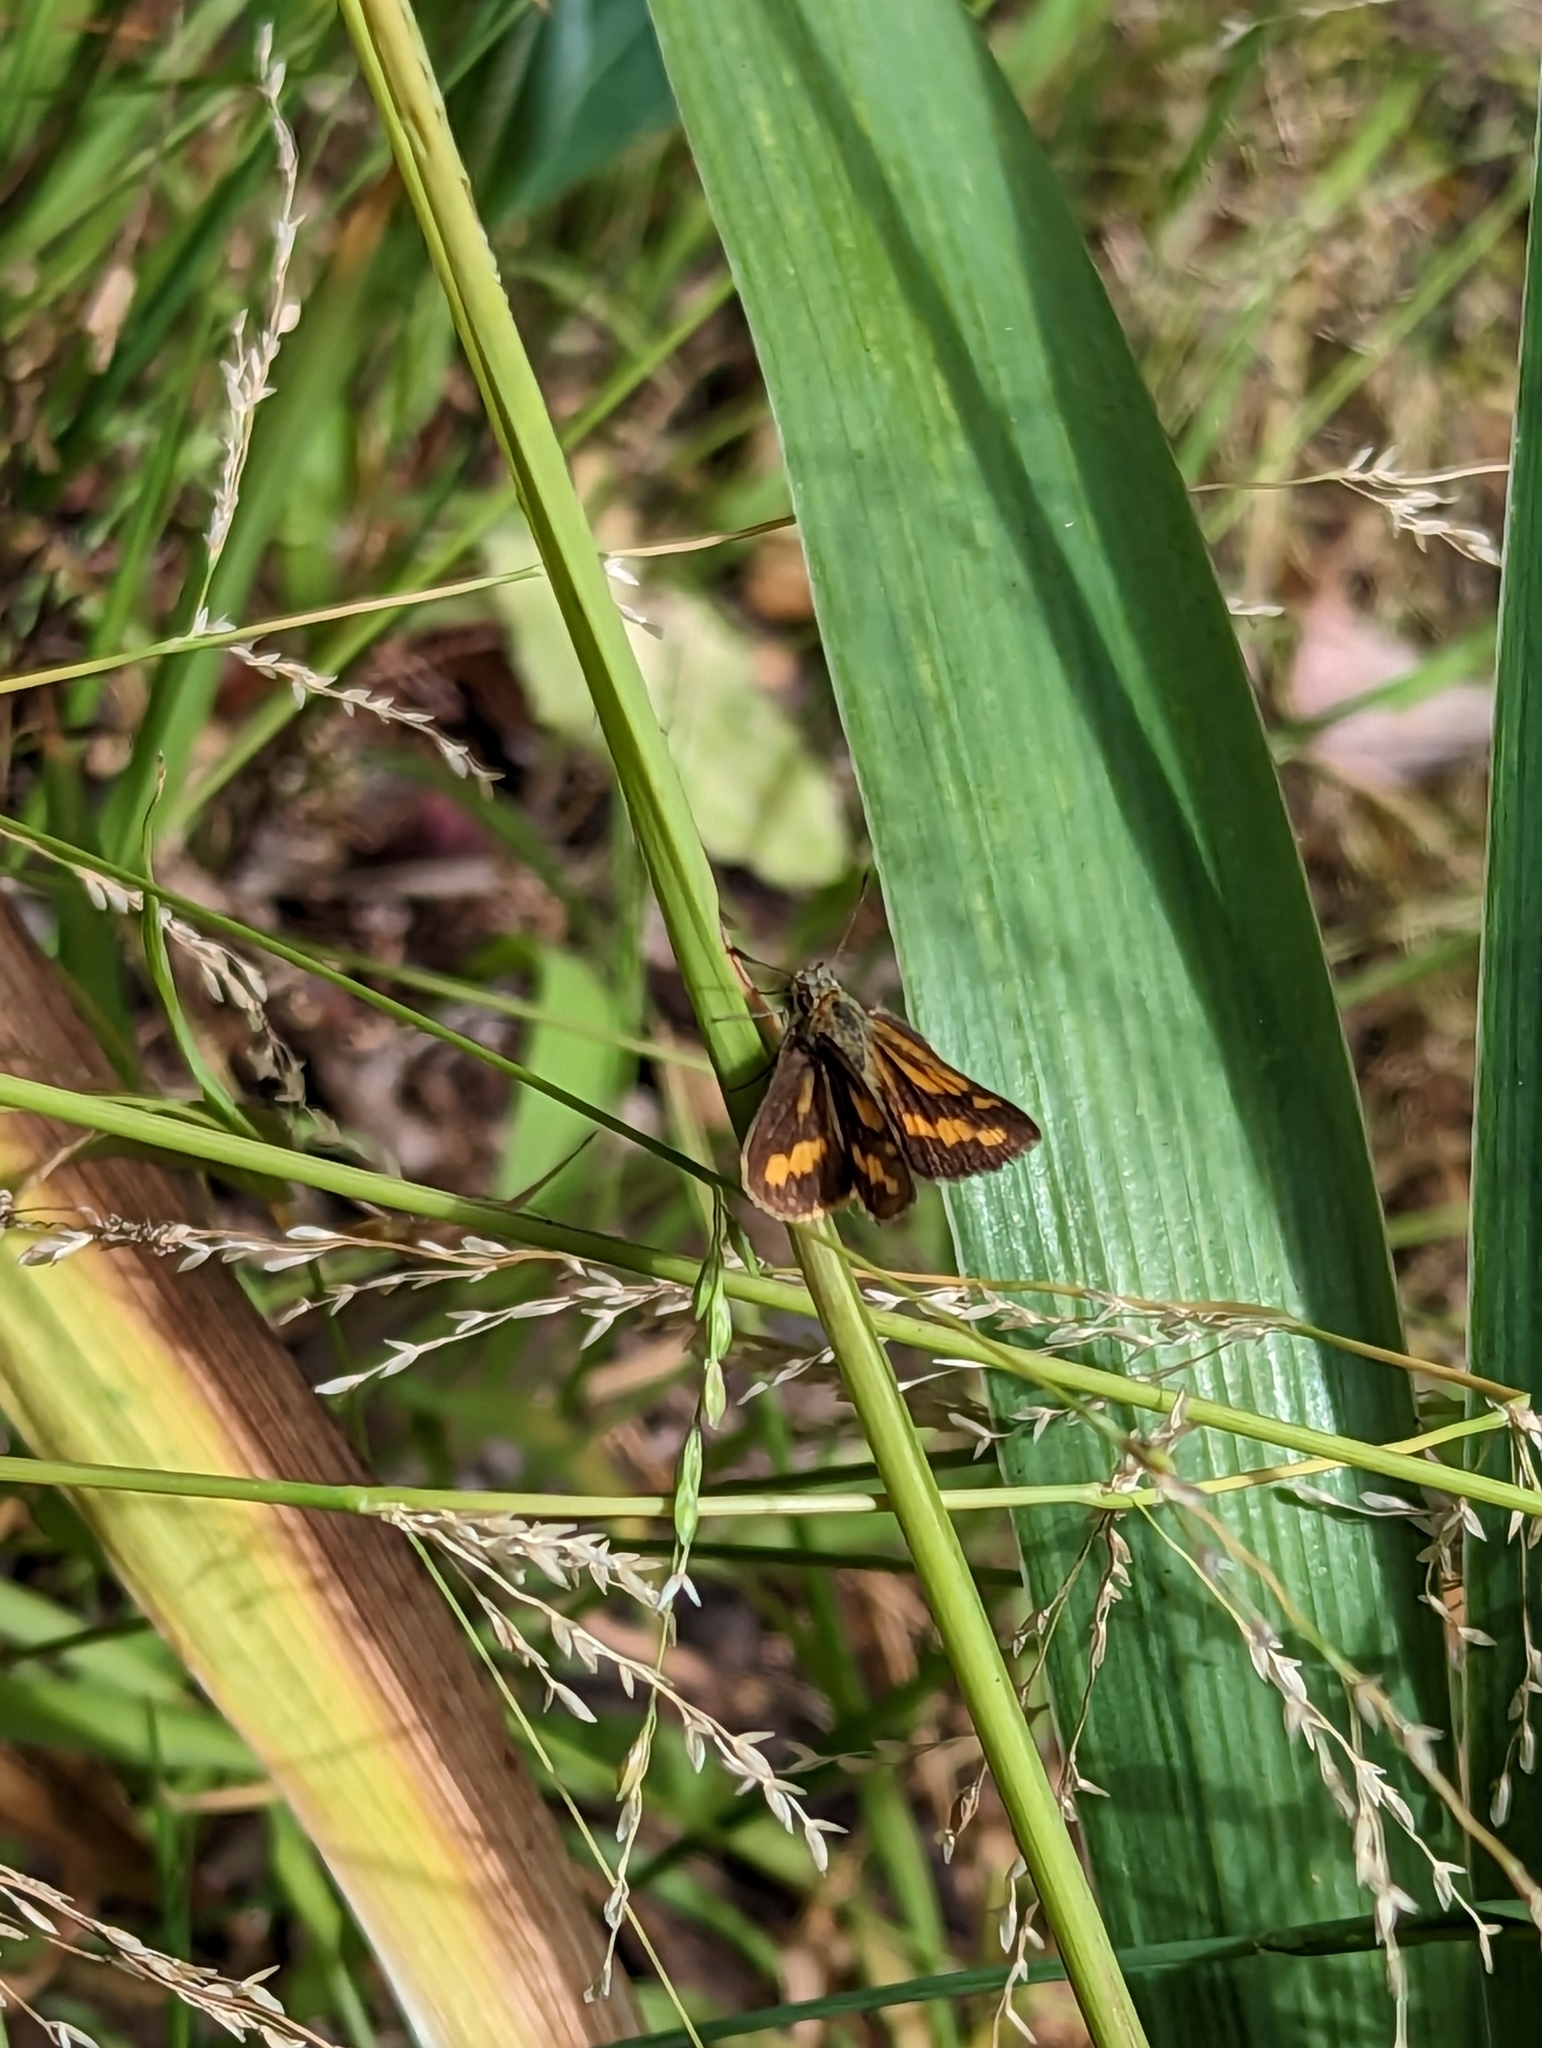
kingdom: Animalia
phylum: Arthropoda
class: Insecta
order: Lepidoptera
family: Hesperiidae
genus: Ocybadistes
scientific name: Ocybadistes walkeri
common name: Yellow-banded dart
